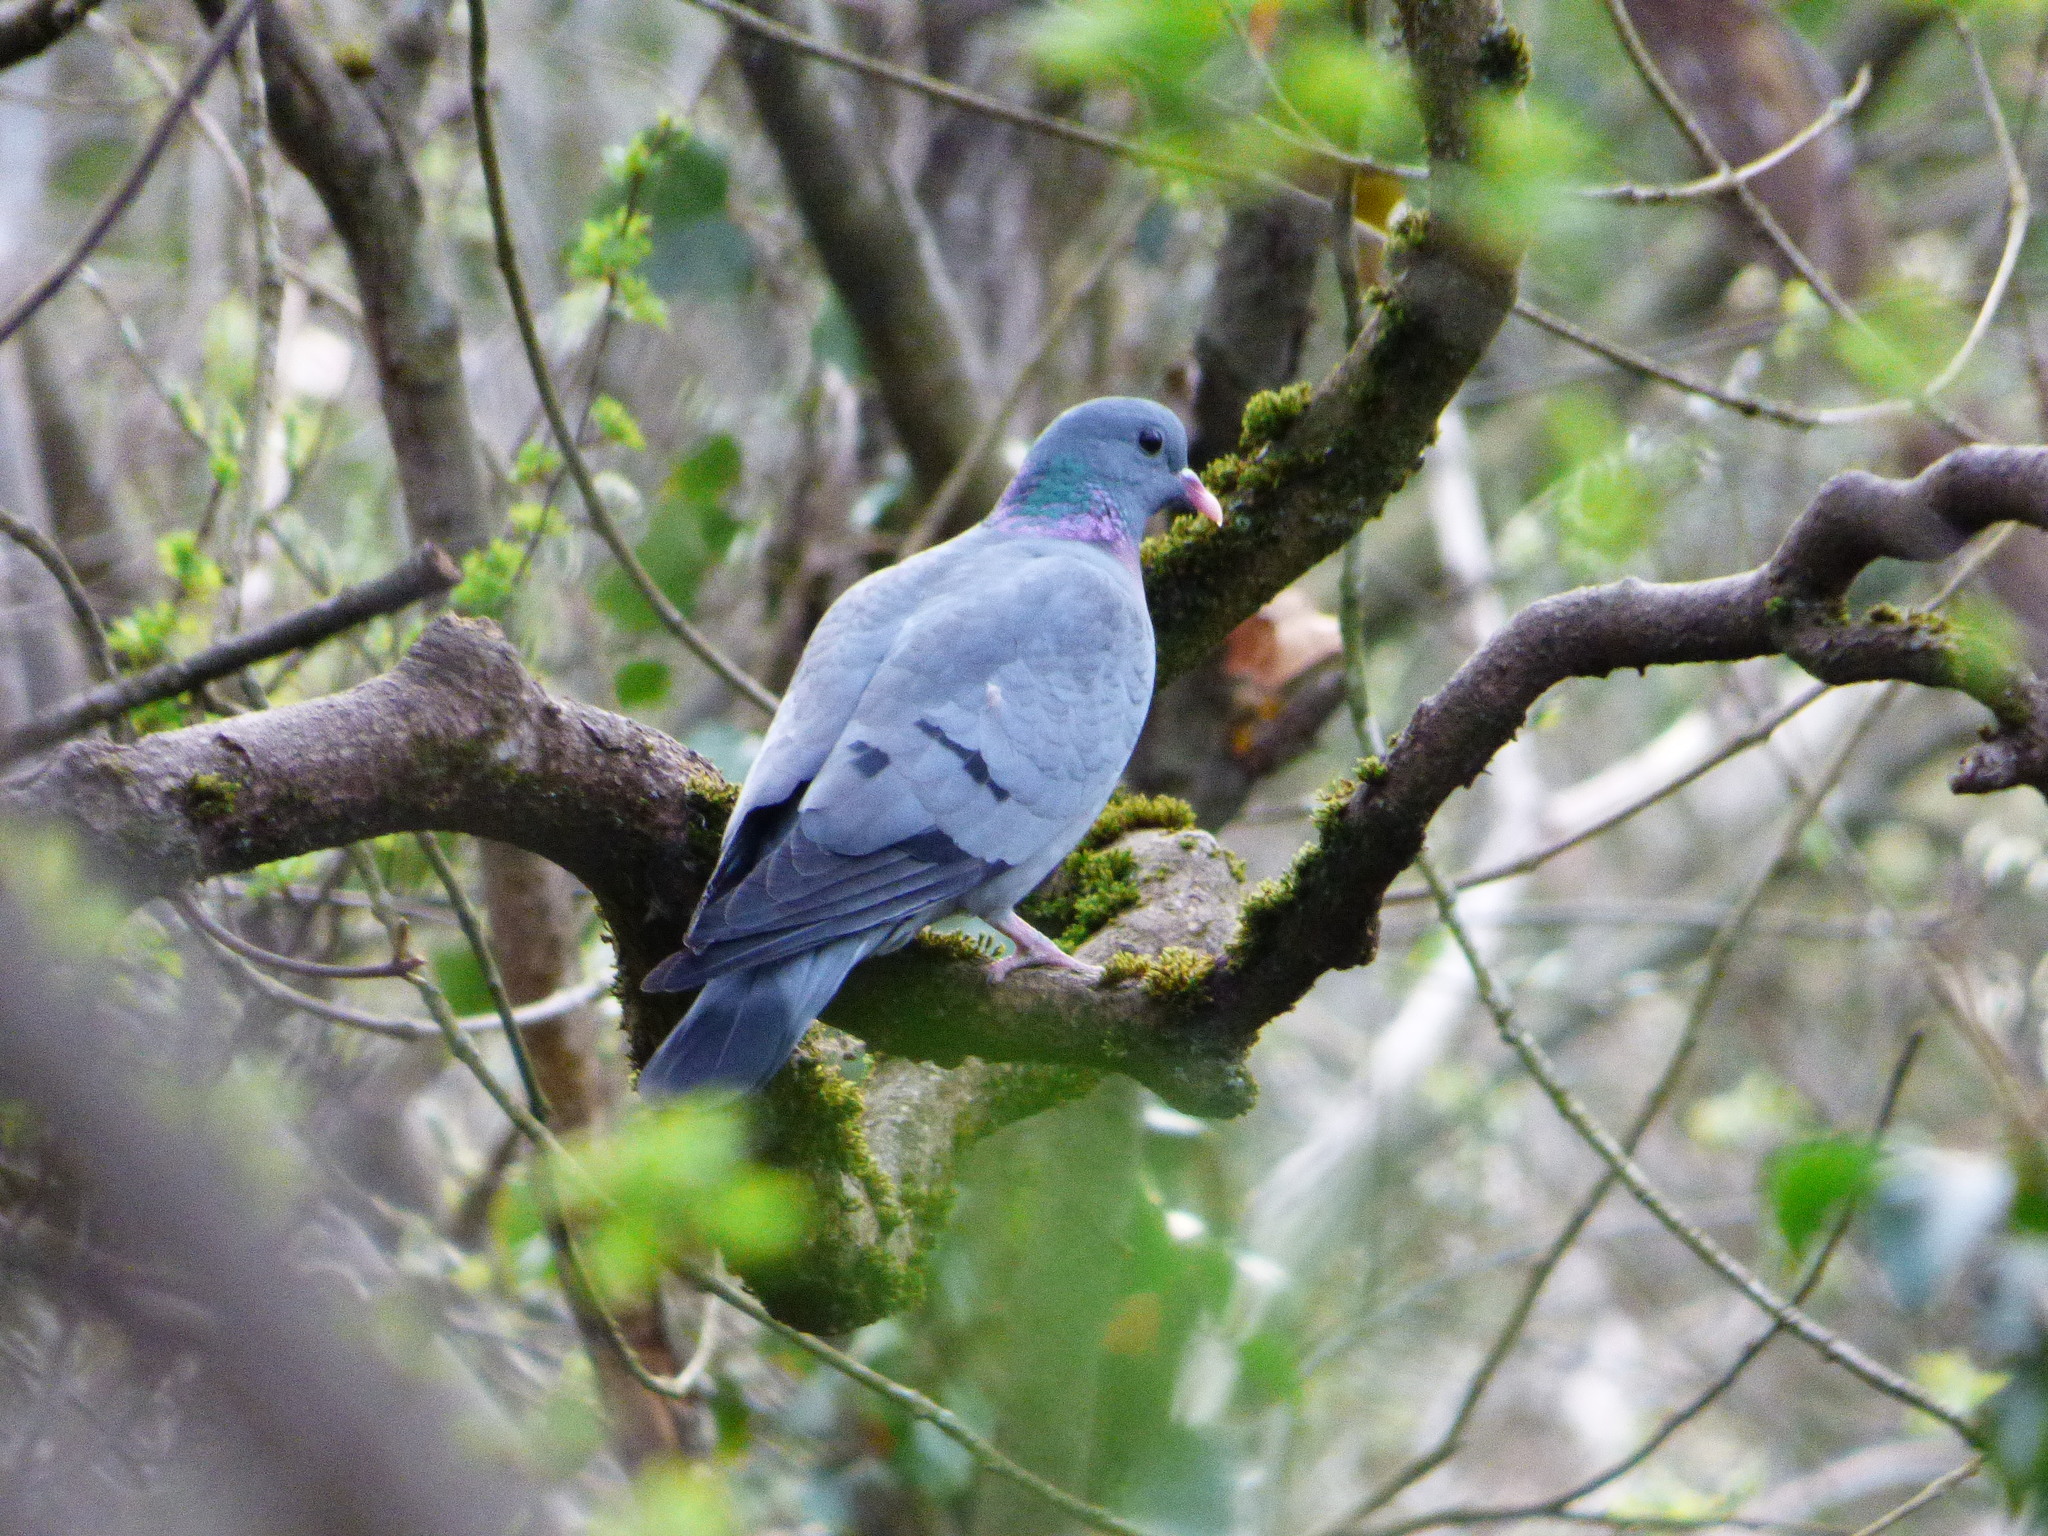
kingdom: Animalia
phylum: Chordata
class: Aves
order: Columbiformes
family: Columbidae
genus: Columba
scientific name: Columba oenas
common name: Stock dove
